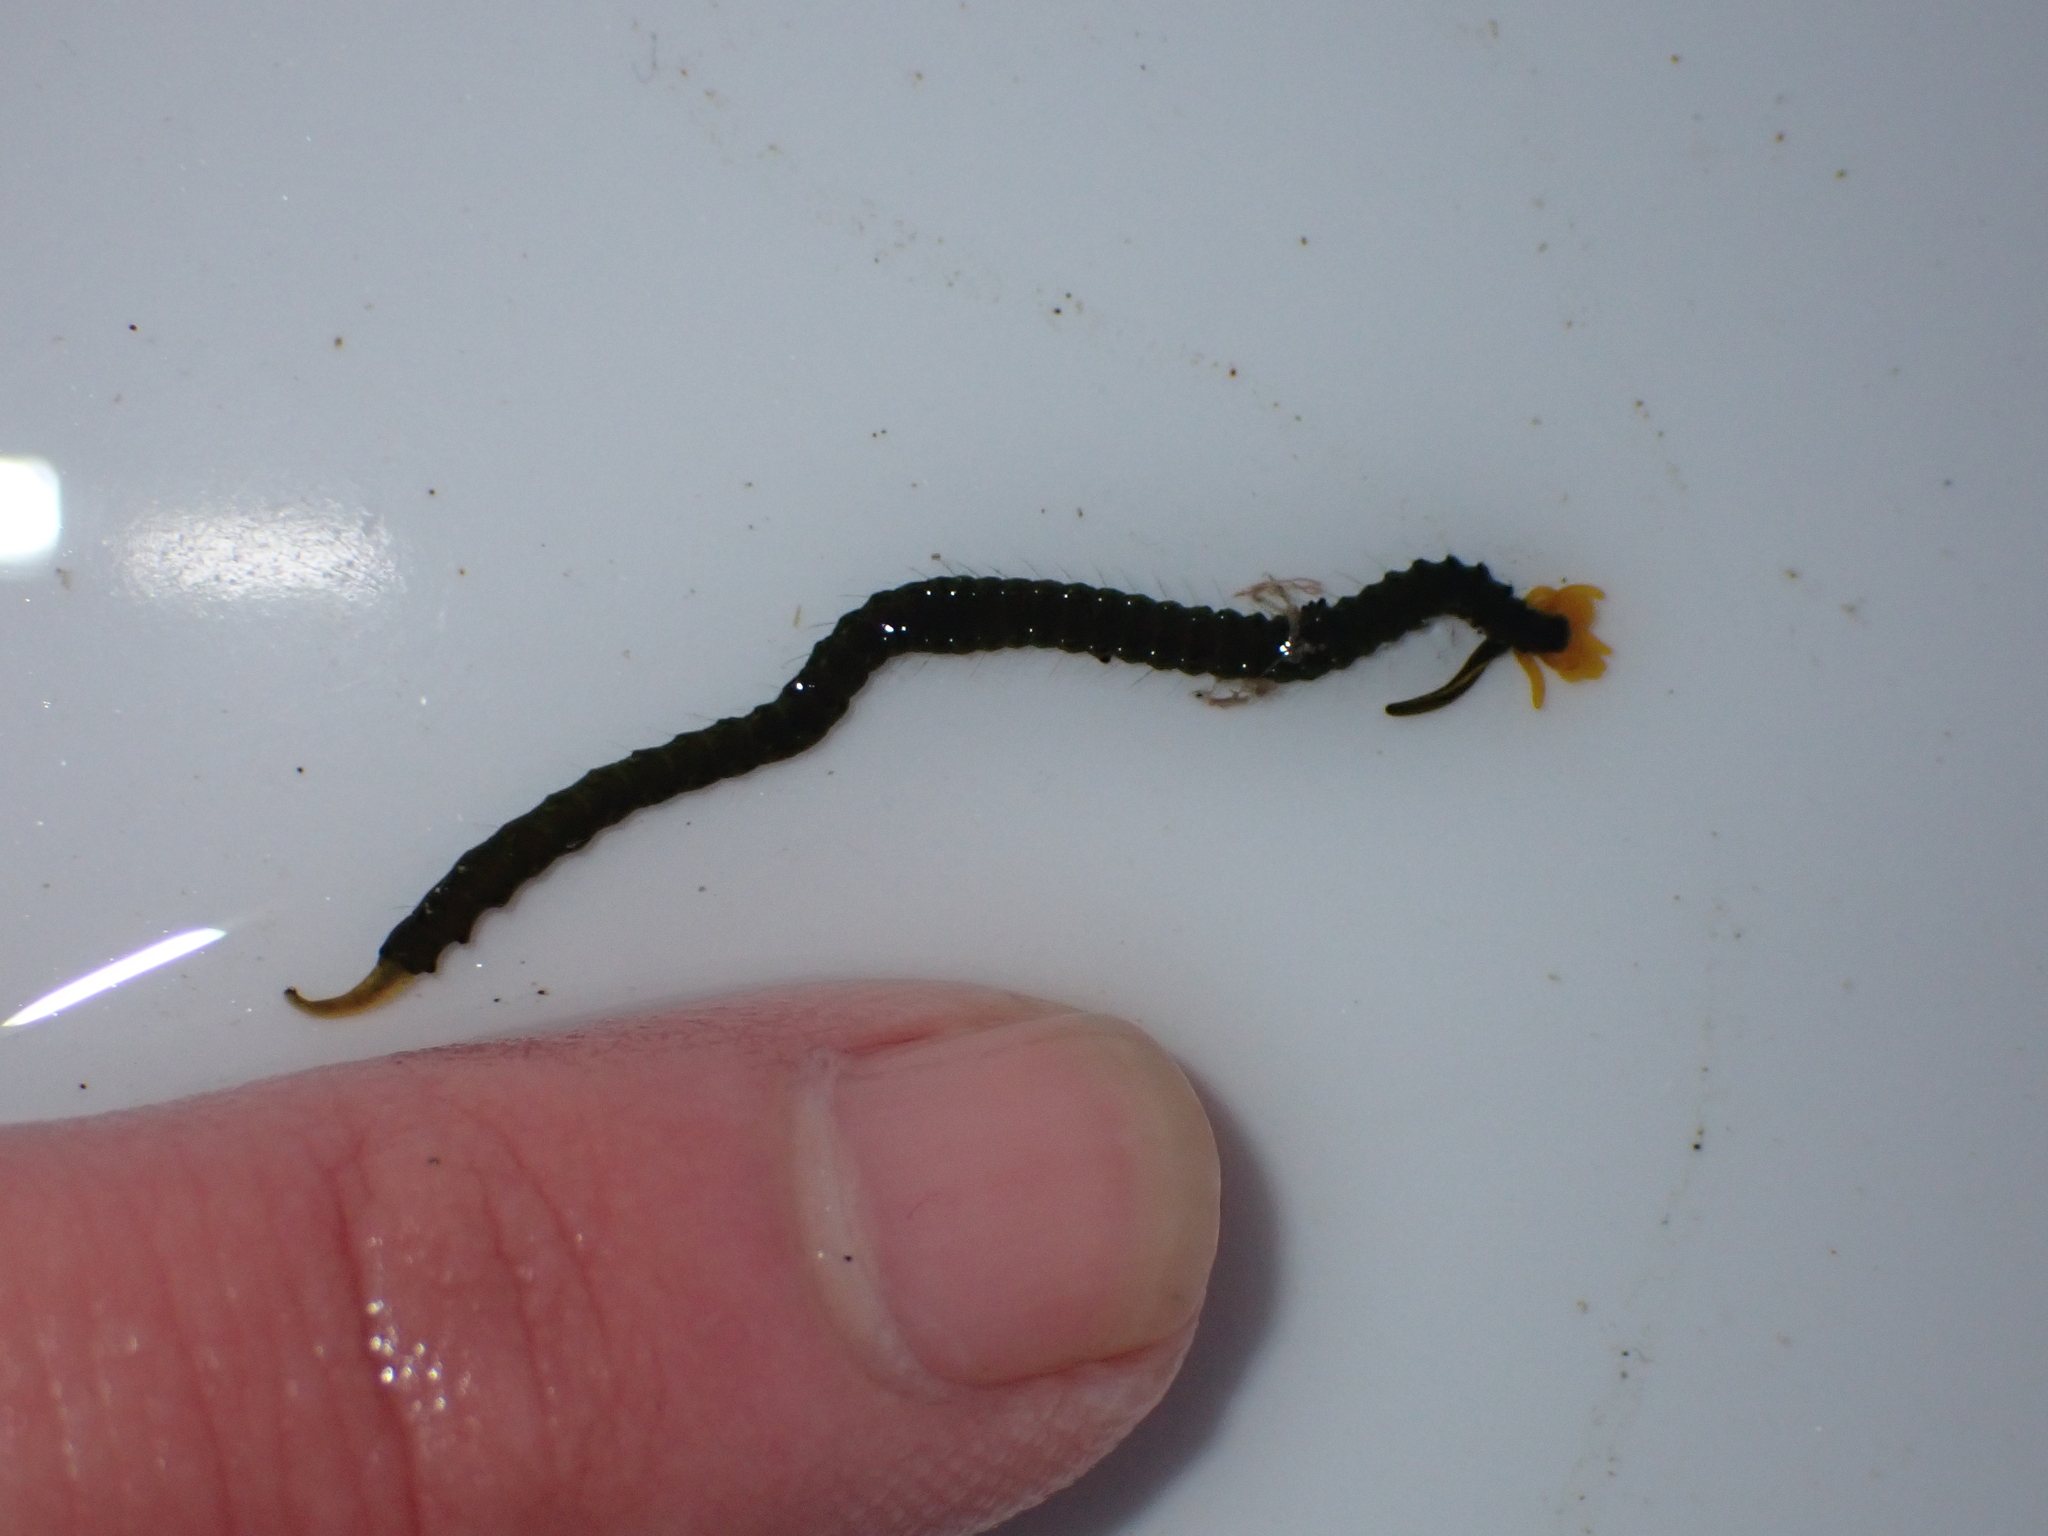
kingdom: Animalia
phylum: Annelida
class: Polychaeta
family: Acrocirridae
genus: Acrocirrus
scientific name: Acrocirrus
